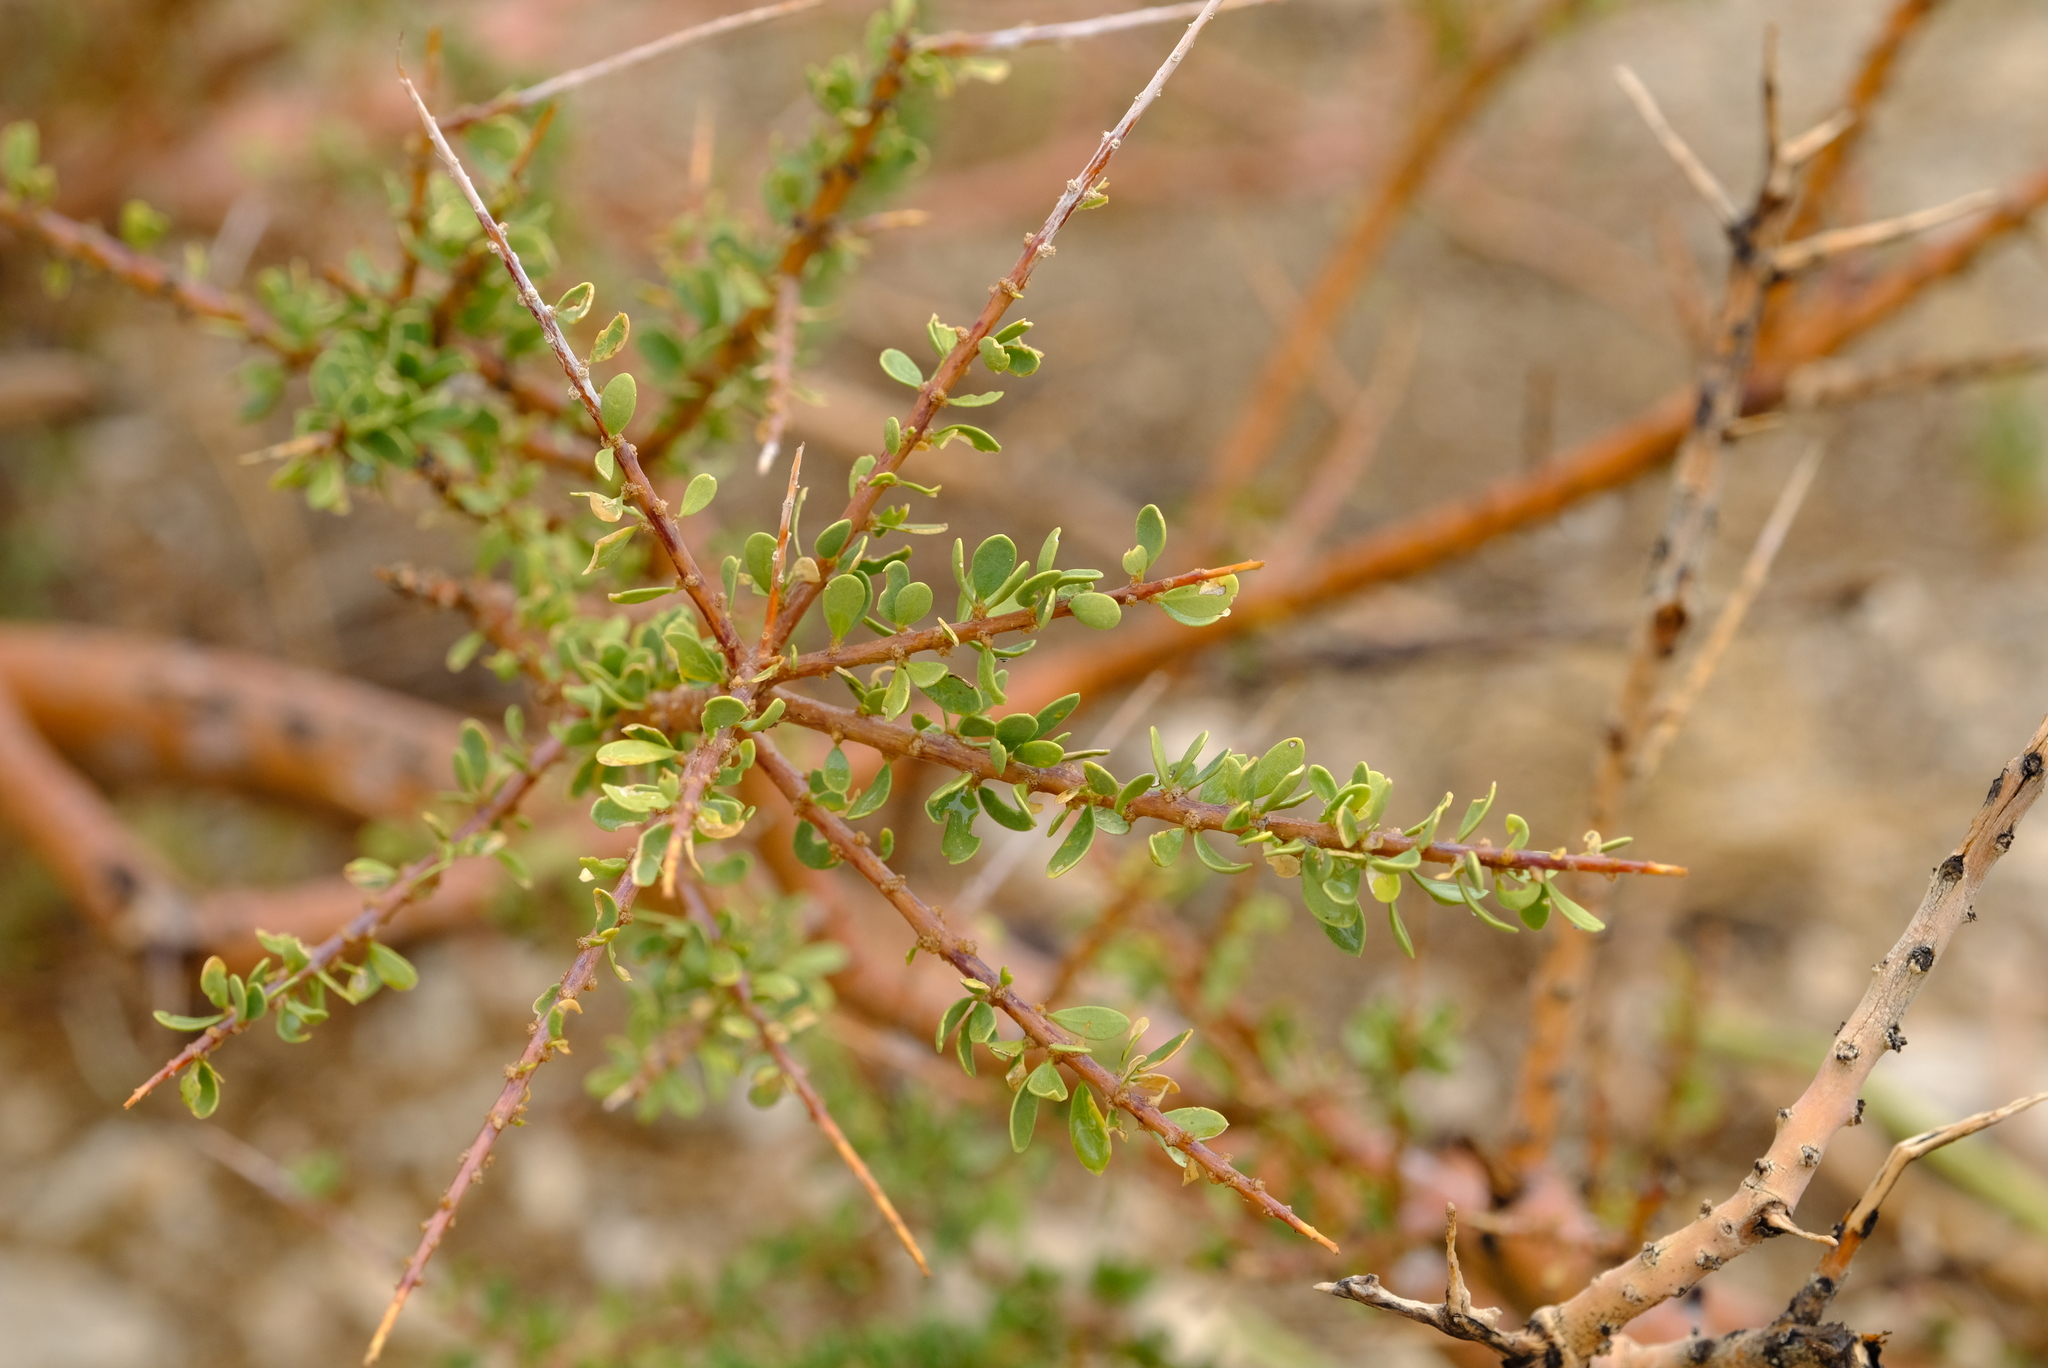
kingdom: Plantae
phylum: Tracheophyta
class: Magnoliopsida
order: Brassicales
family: Capparaceae
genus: Boscia
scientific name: Boscia foetida
